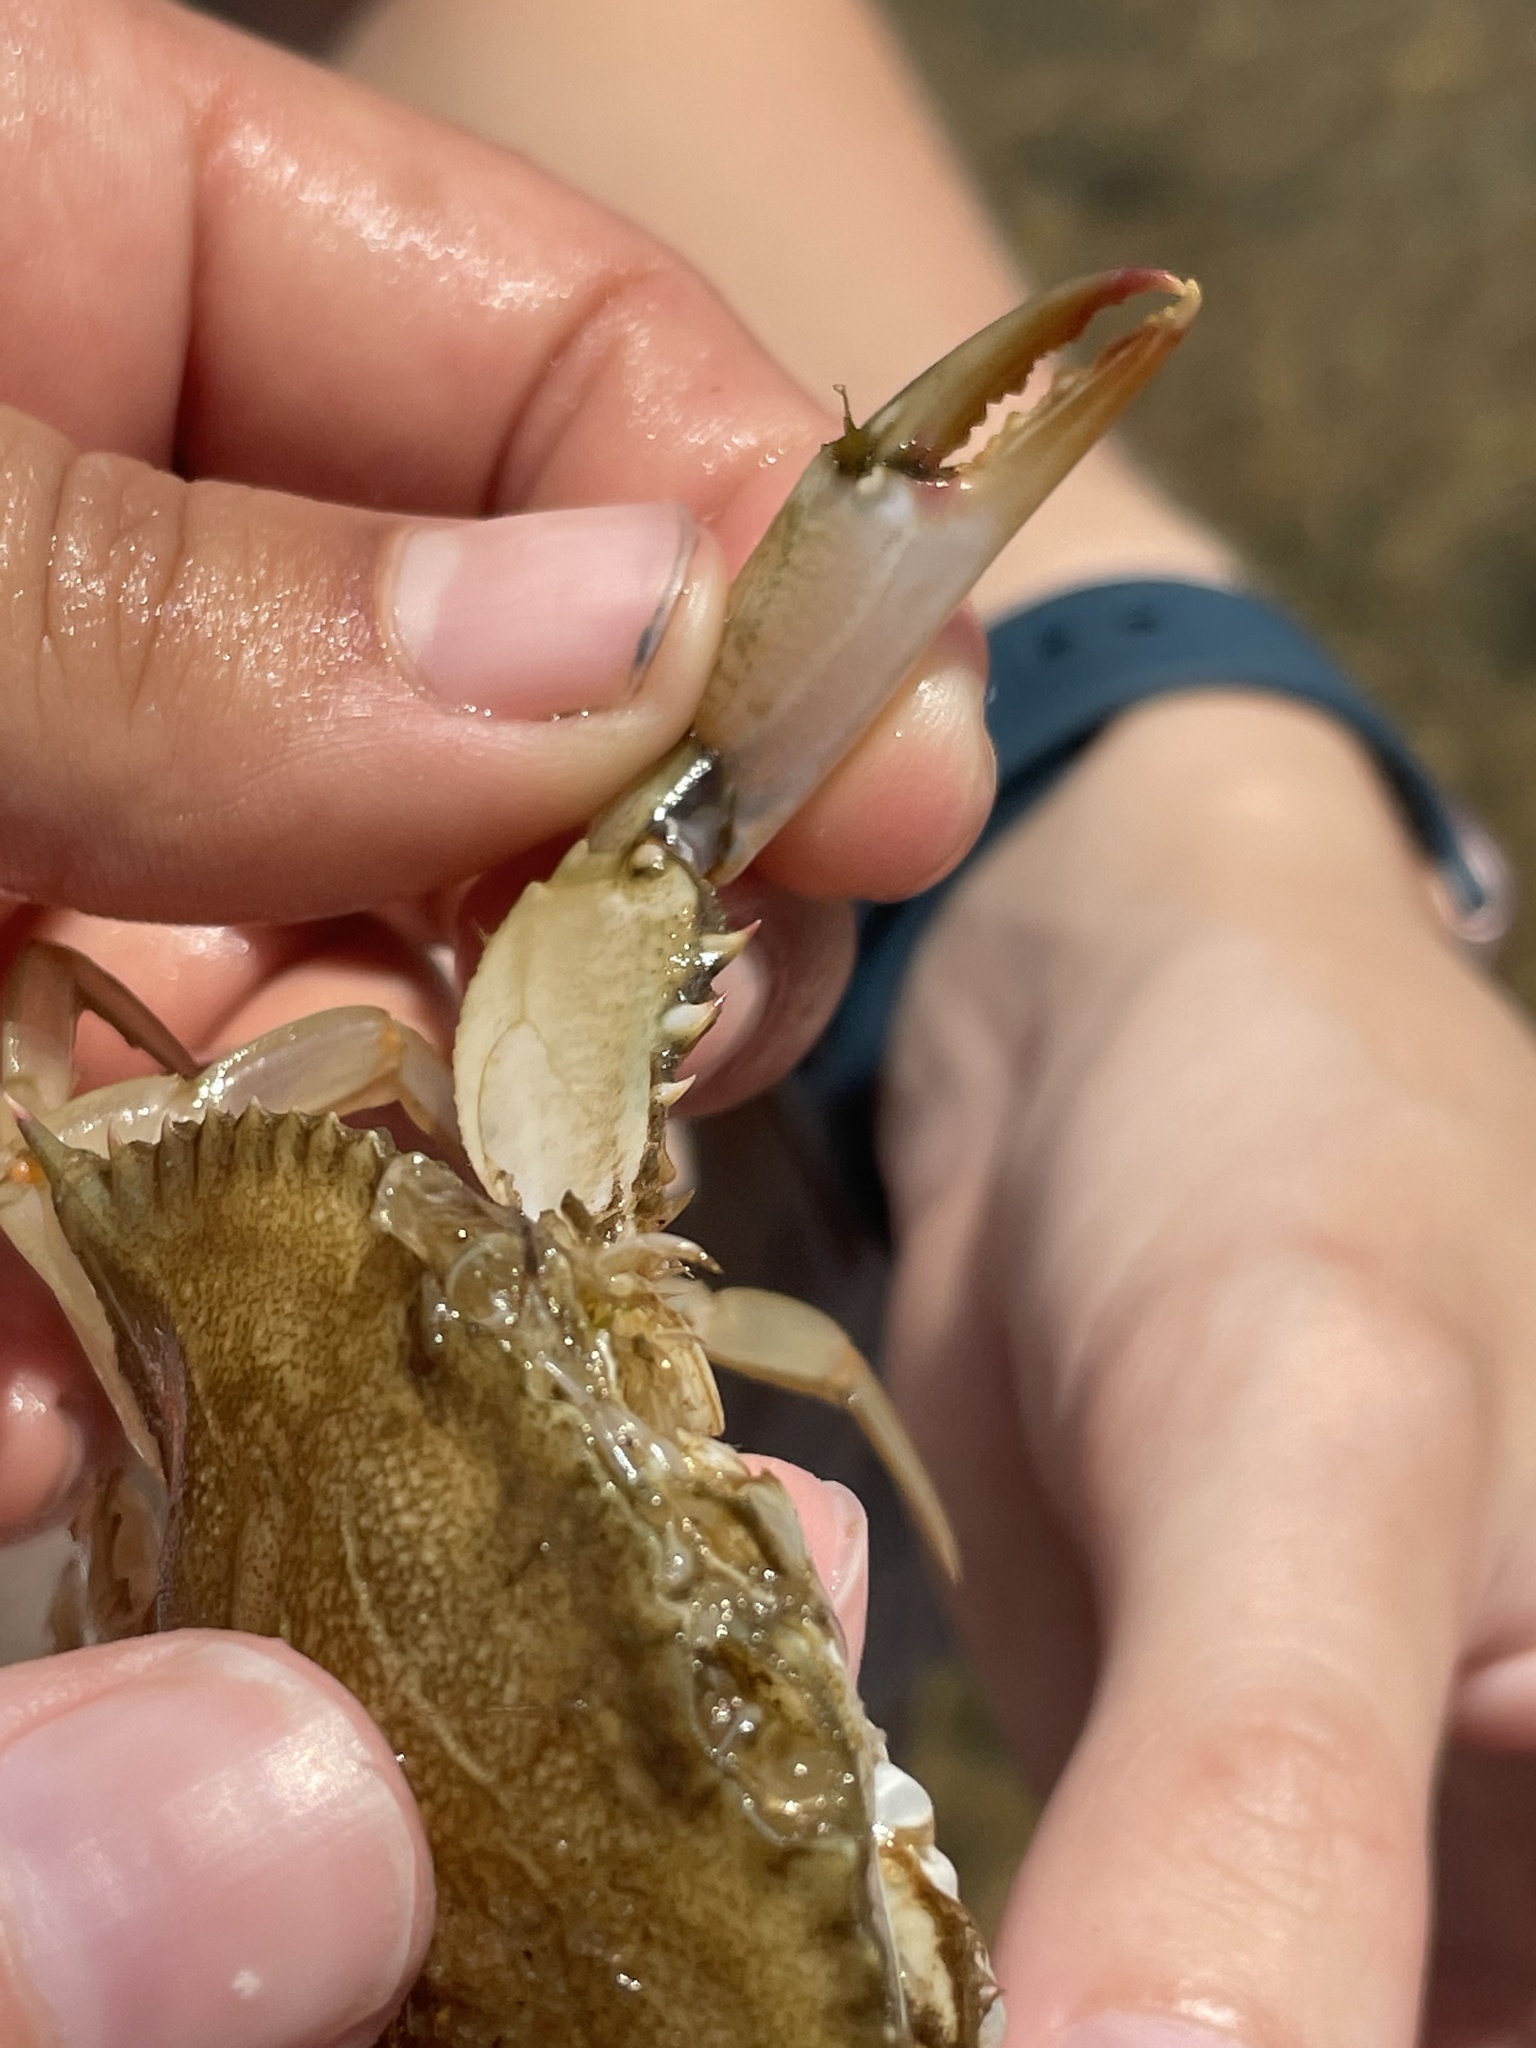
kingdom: Animalia
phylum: Arthropoda
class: Malacostraca
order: Decapoda
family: Portunidae
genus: Callinectes
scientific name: Callinectes sapidus
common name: Blue crab
